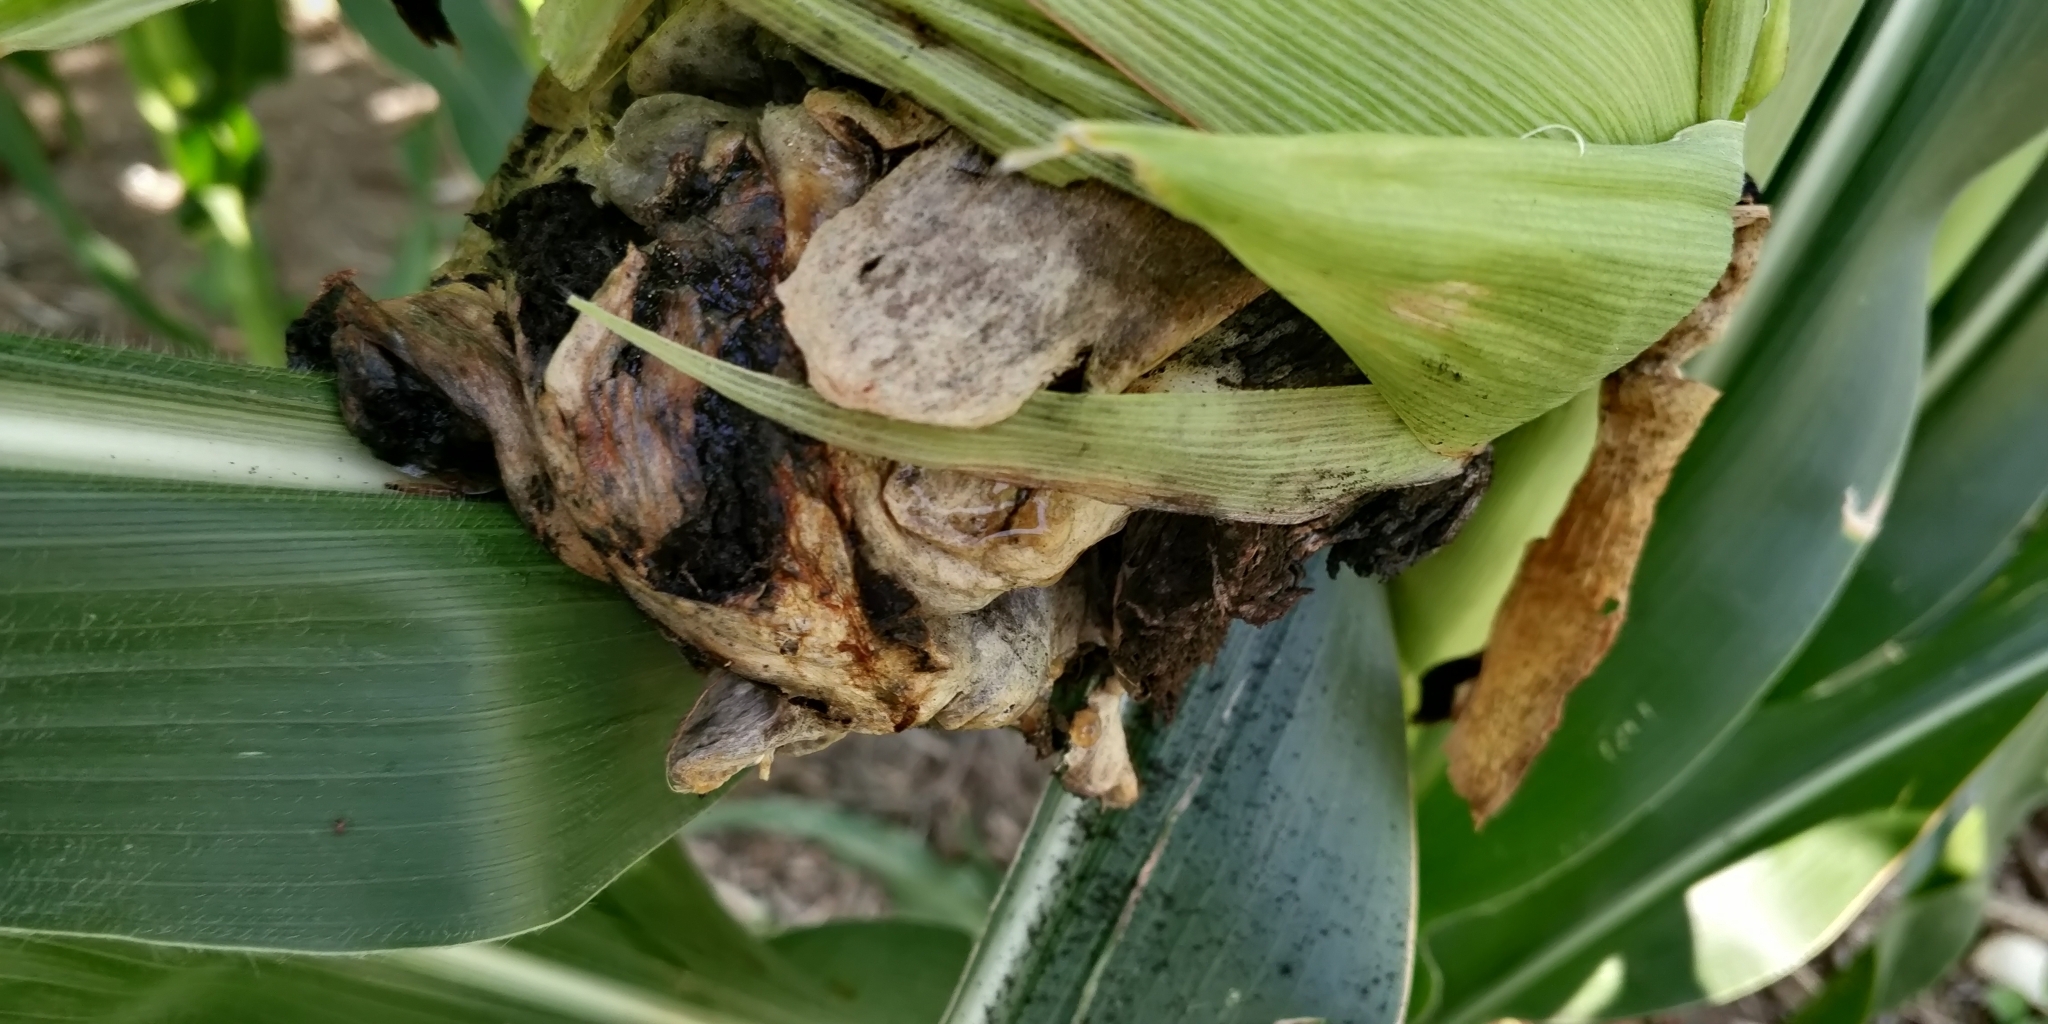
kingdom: Fungi
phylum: Basidiomycota
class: Ustilaginomycetes
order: Ustilaginales
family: Ustilaginaceae
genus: Mycosarcoma
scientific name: Mycosarcoma maydis
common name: Corn smut
